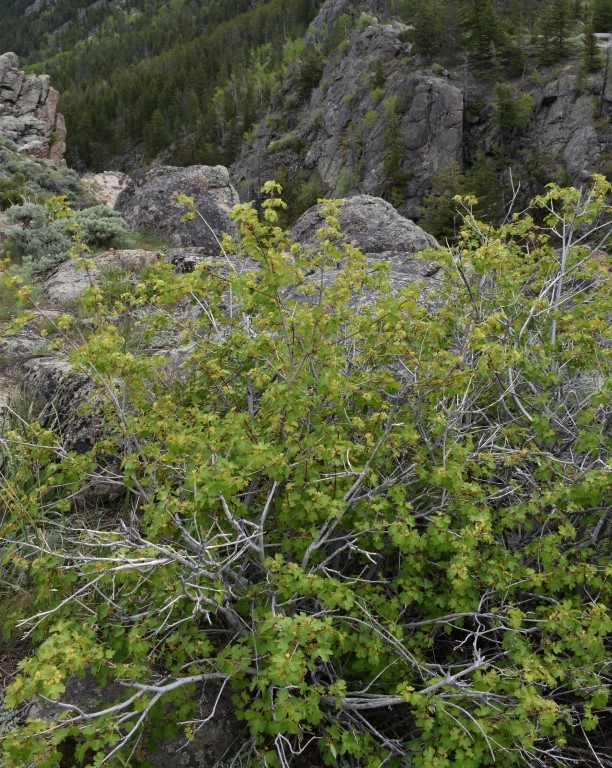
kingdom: Plantae
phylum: Tracheophyta
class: Magnoliopsida
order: Sapindales
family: Sapindaceae
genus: Acer
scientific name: Acer glabrum
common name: Rocky mountain maple
